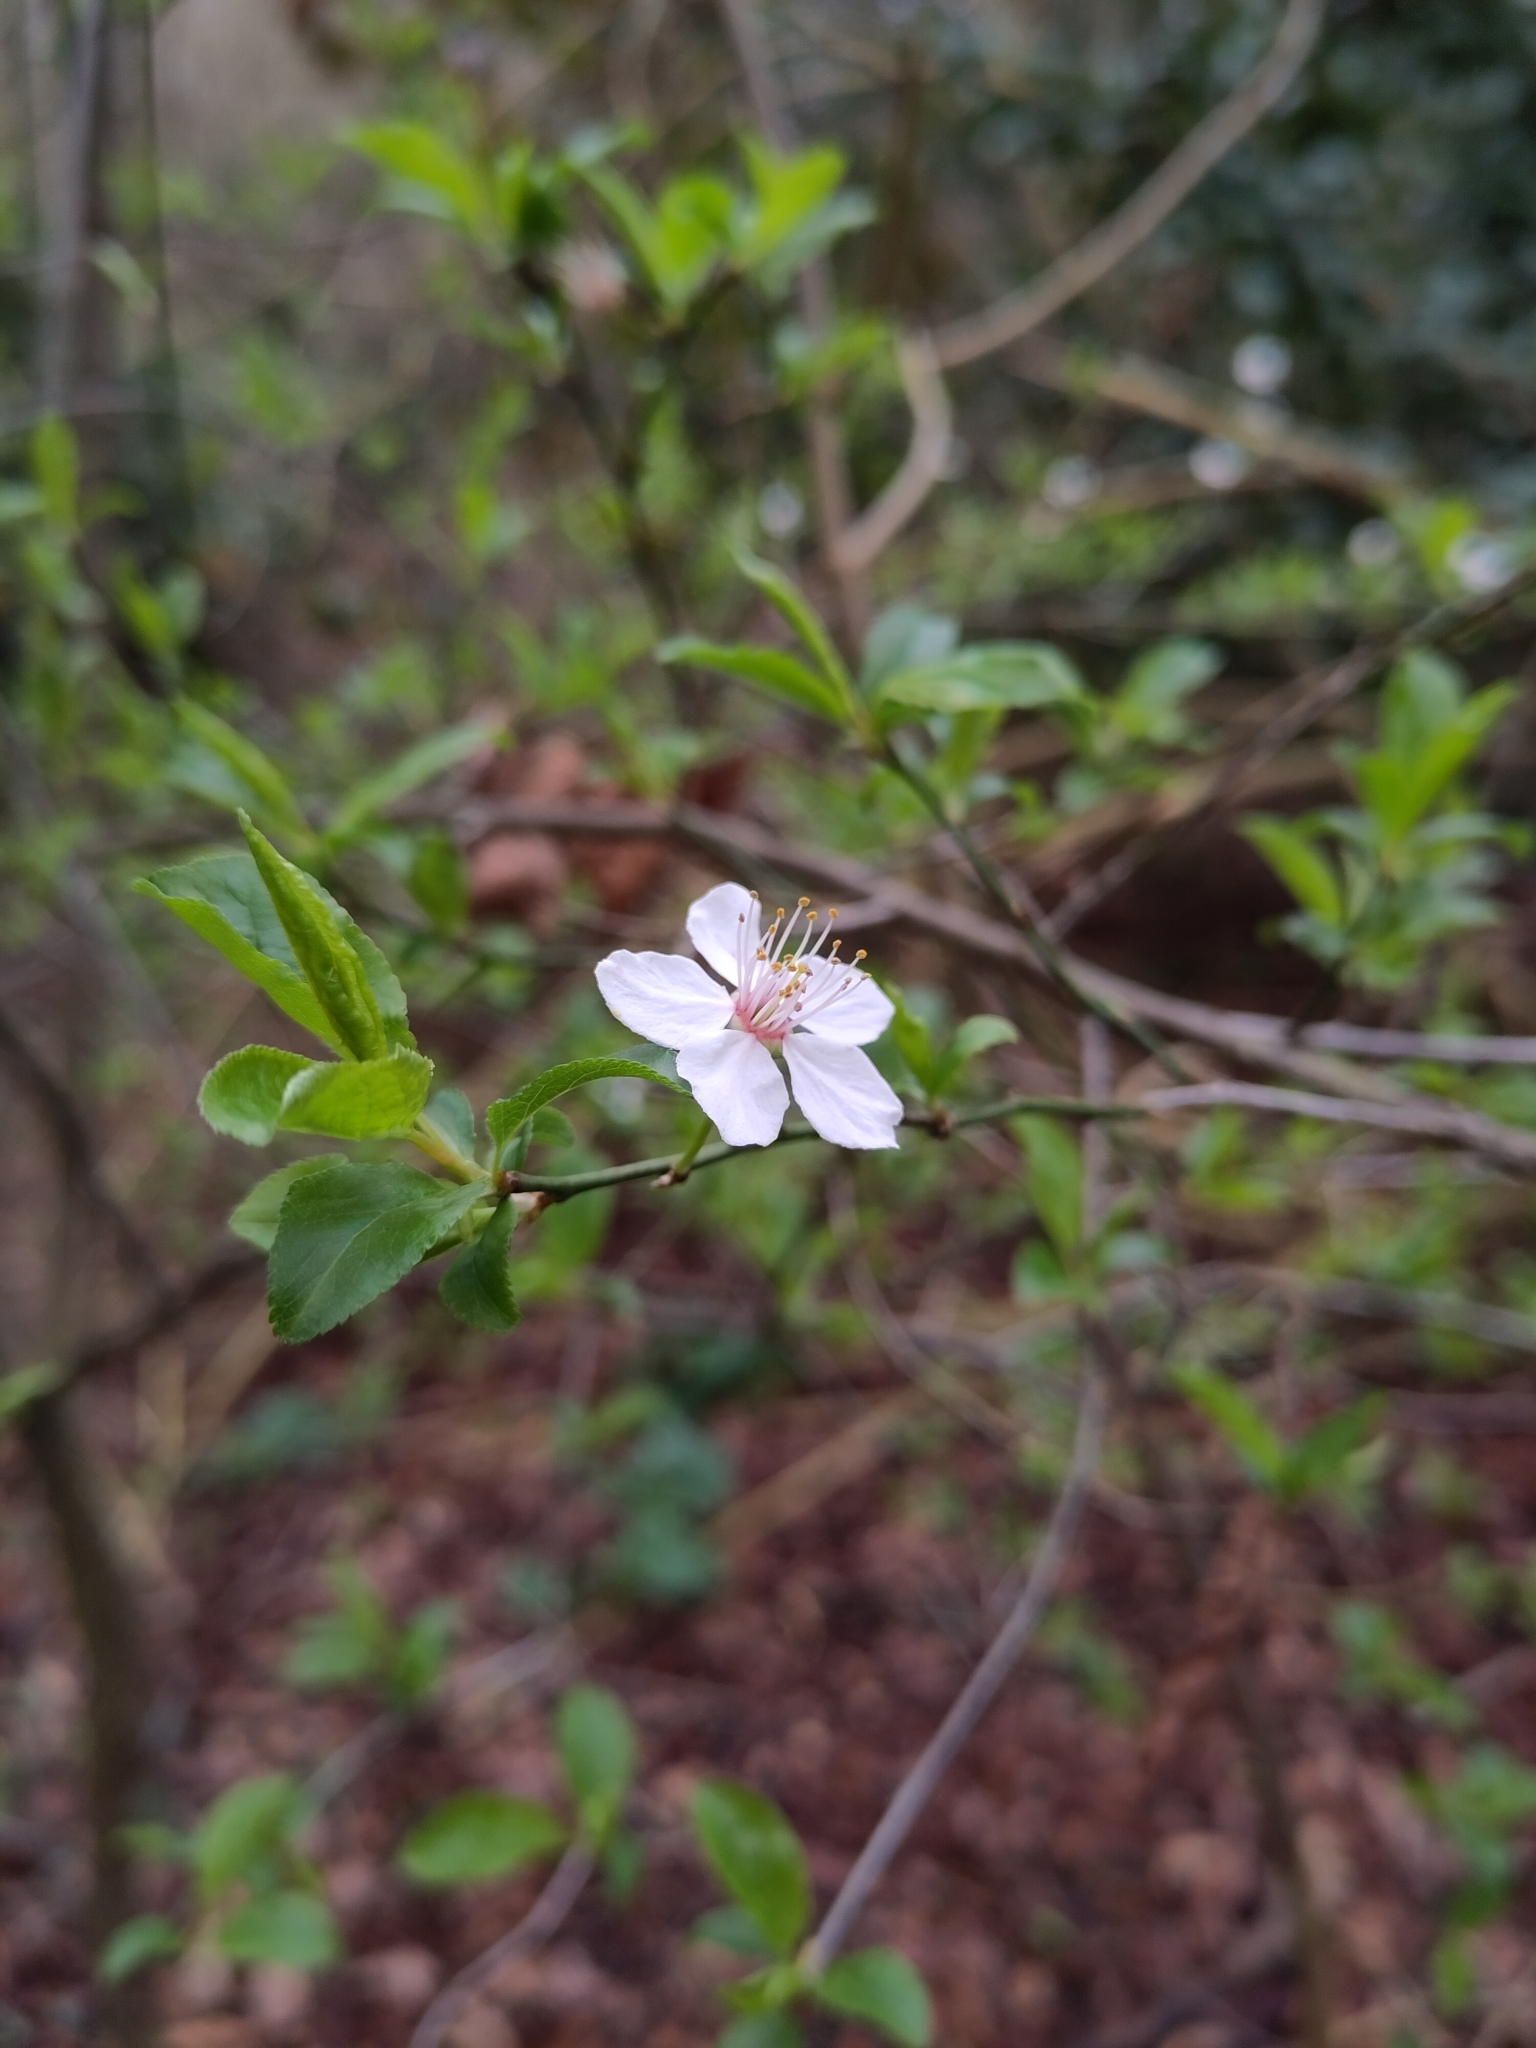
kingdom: Plantae
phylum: Tracheophyta
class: Magnoliopsida
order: Rosales
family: Rosaceae
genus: Prunus
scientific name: Prunus cerasifera
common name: Cherry plum
